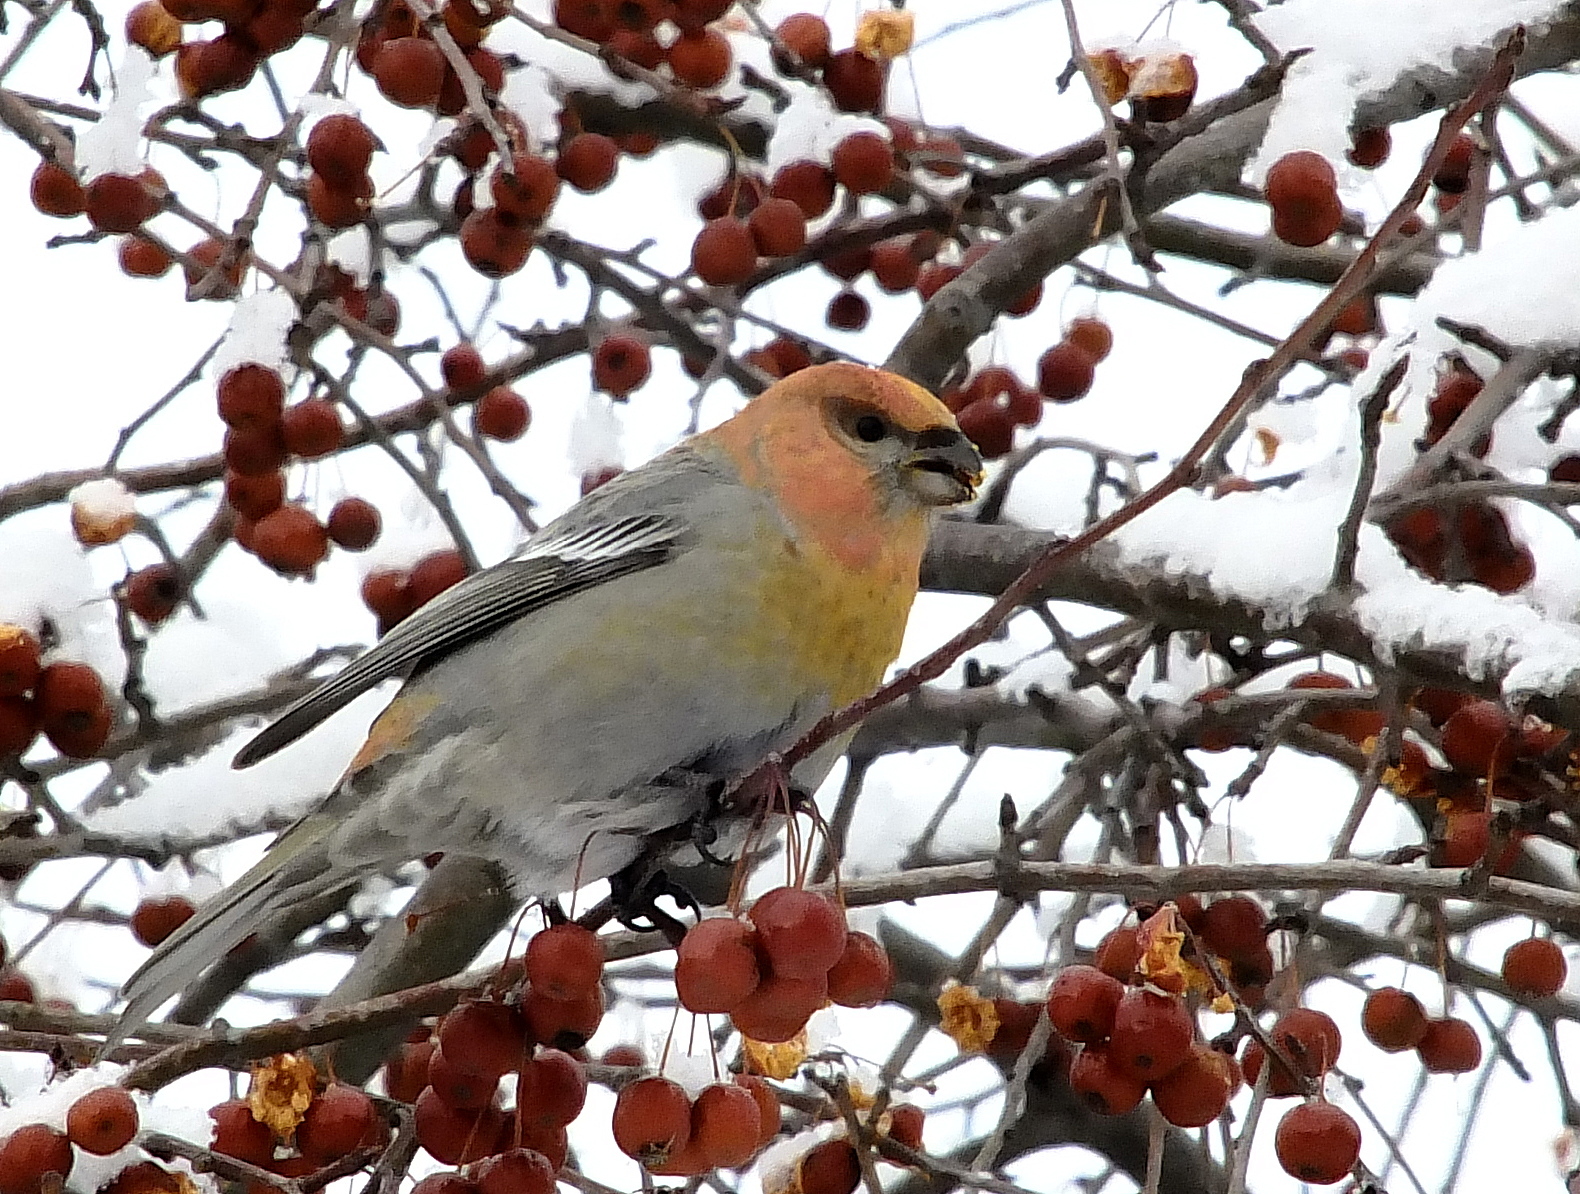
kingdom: Animalia
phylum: Chordata
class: Aves
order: Passeriformes
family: Fringillidae
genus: Pinicola
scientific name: Pinicola enucleator
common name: Pine grosbeak
